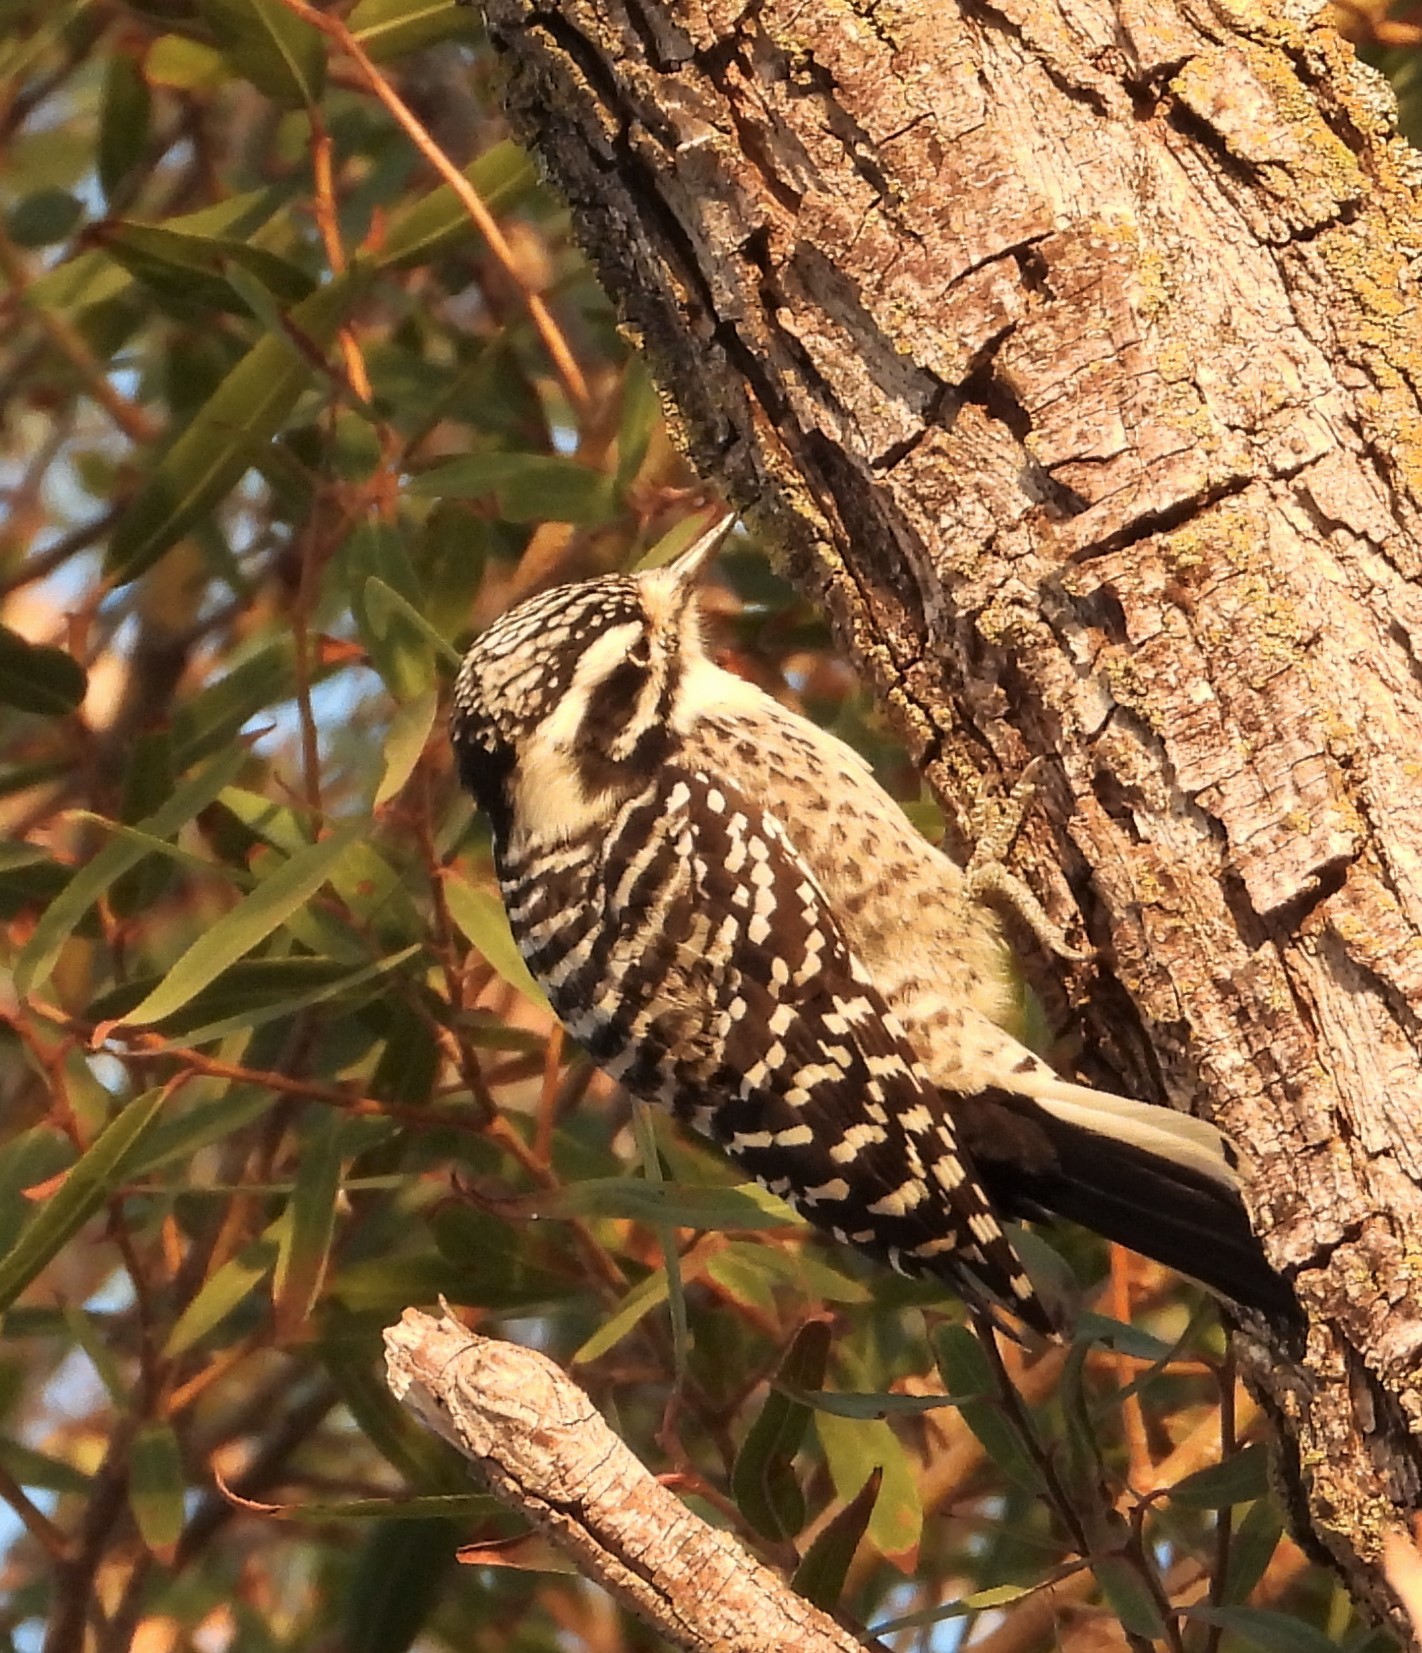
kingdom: Animalia
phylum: Chordata
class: Aves
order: Piciformes
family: Picidae
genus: Dryobates
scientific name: Dryobates nuttallii
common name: Nuttall's woodpecker
